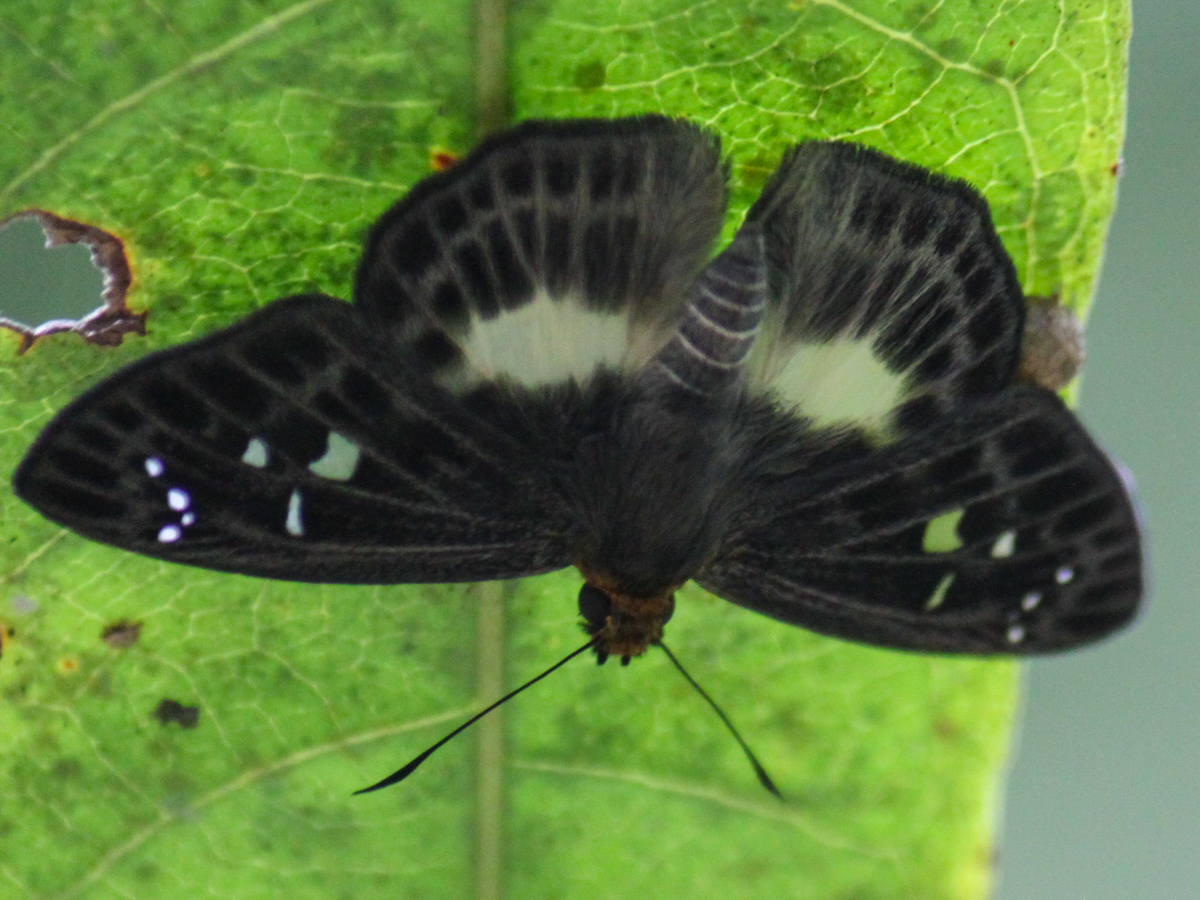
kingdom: Animalia
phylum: Arthropoda
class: Insecta
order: Lepidoptera
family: Hesperiidae
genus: Daimio
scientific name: Daimio
